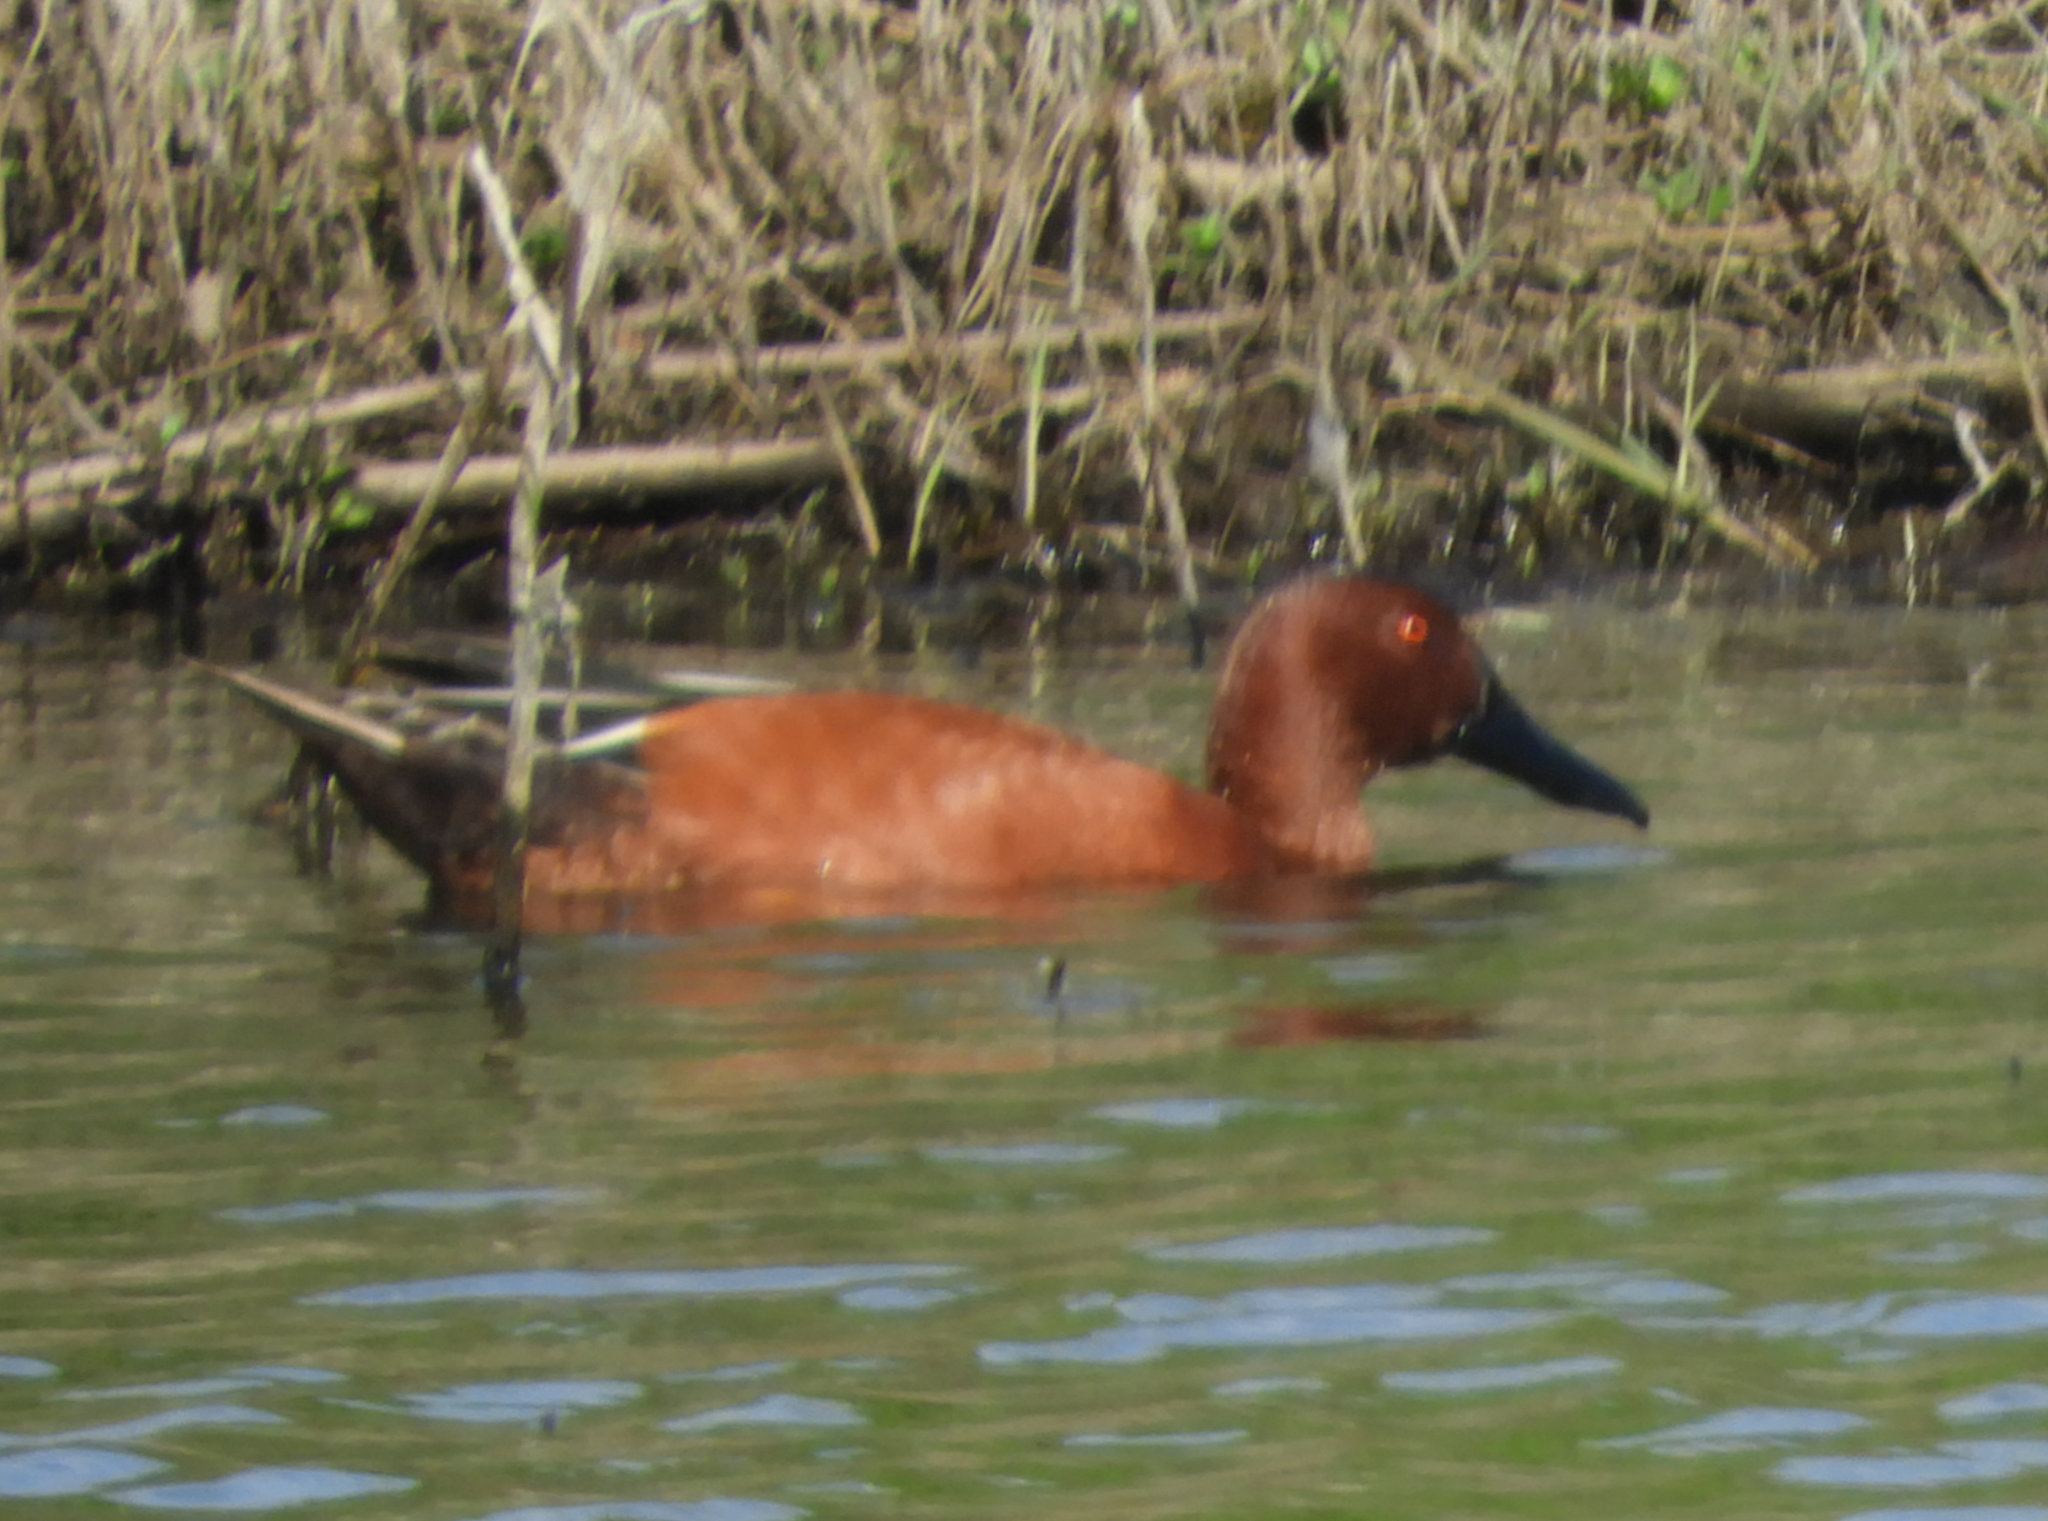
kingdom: Animalia
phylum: Chordata
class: Aves
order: Anseriformes
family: Anatidae
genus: Spatula
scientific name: Spatula cyanoptera
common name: Cinnamon teal
